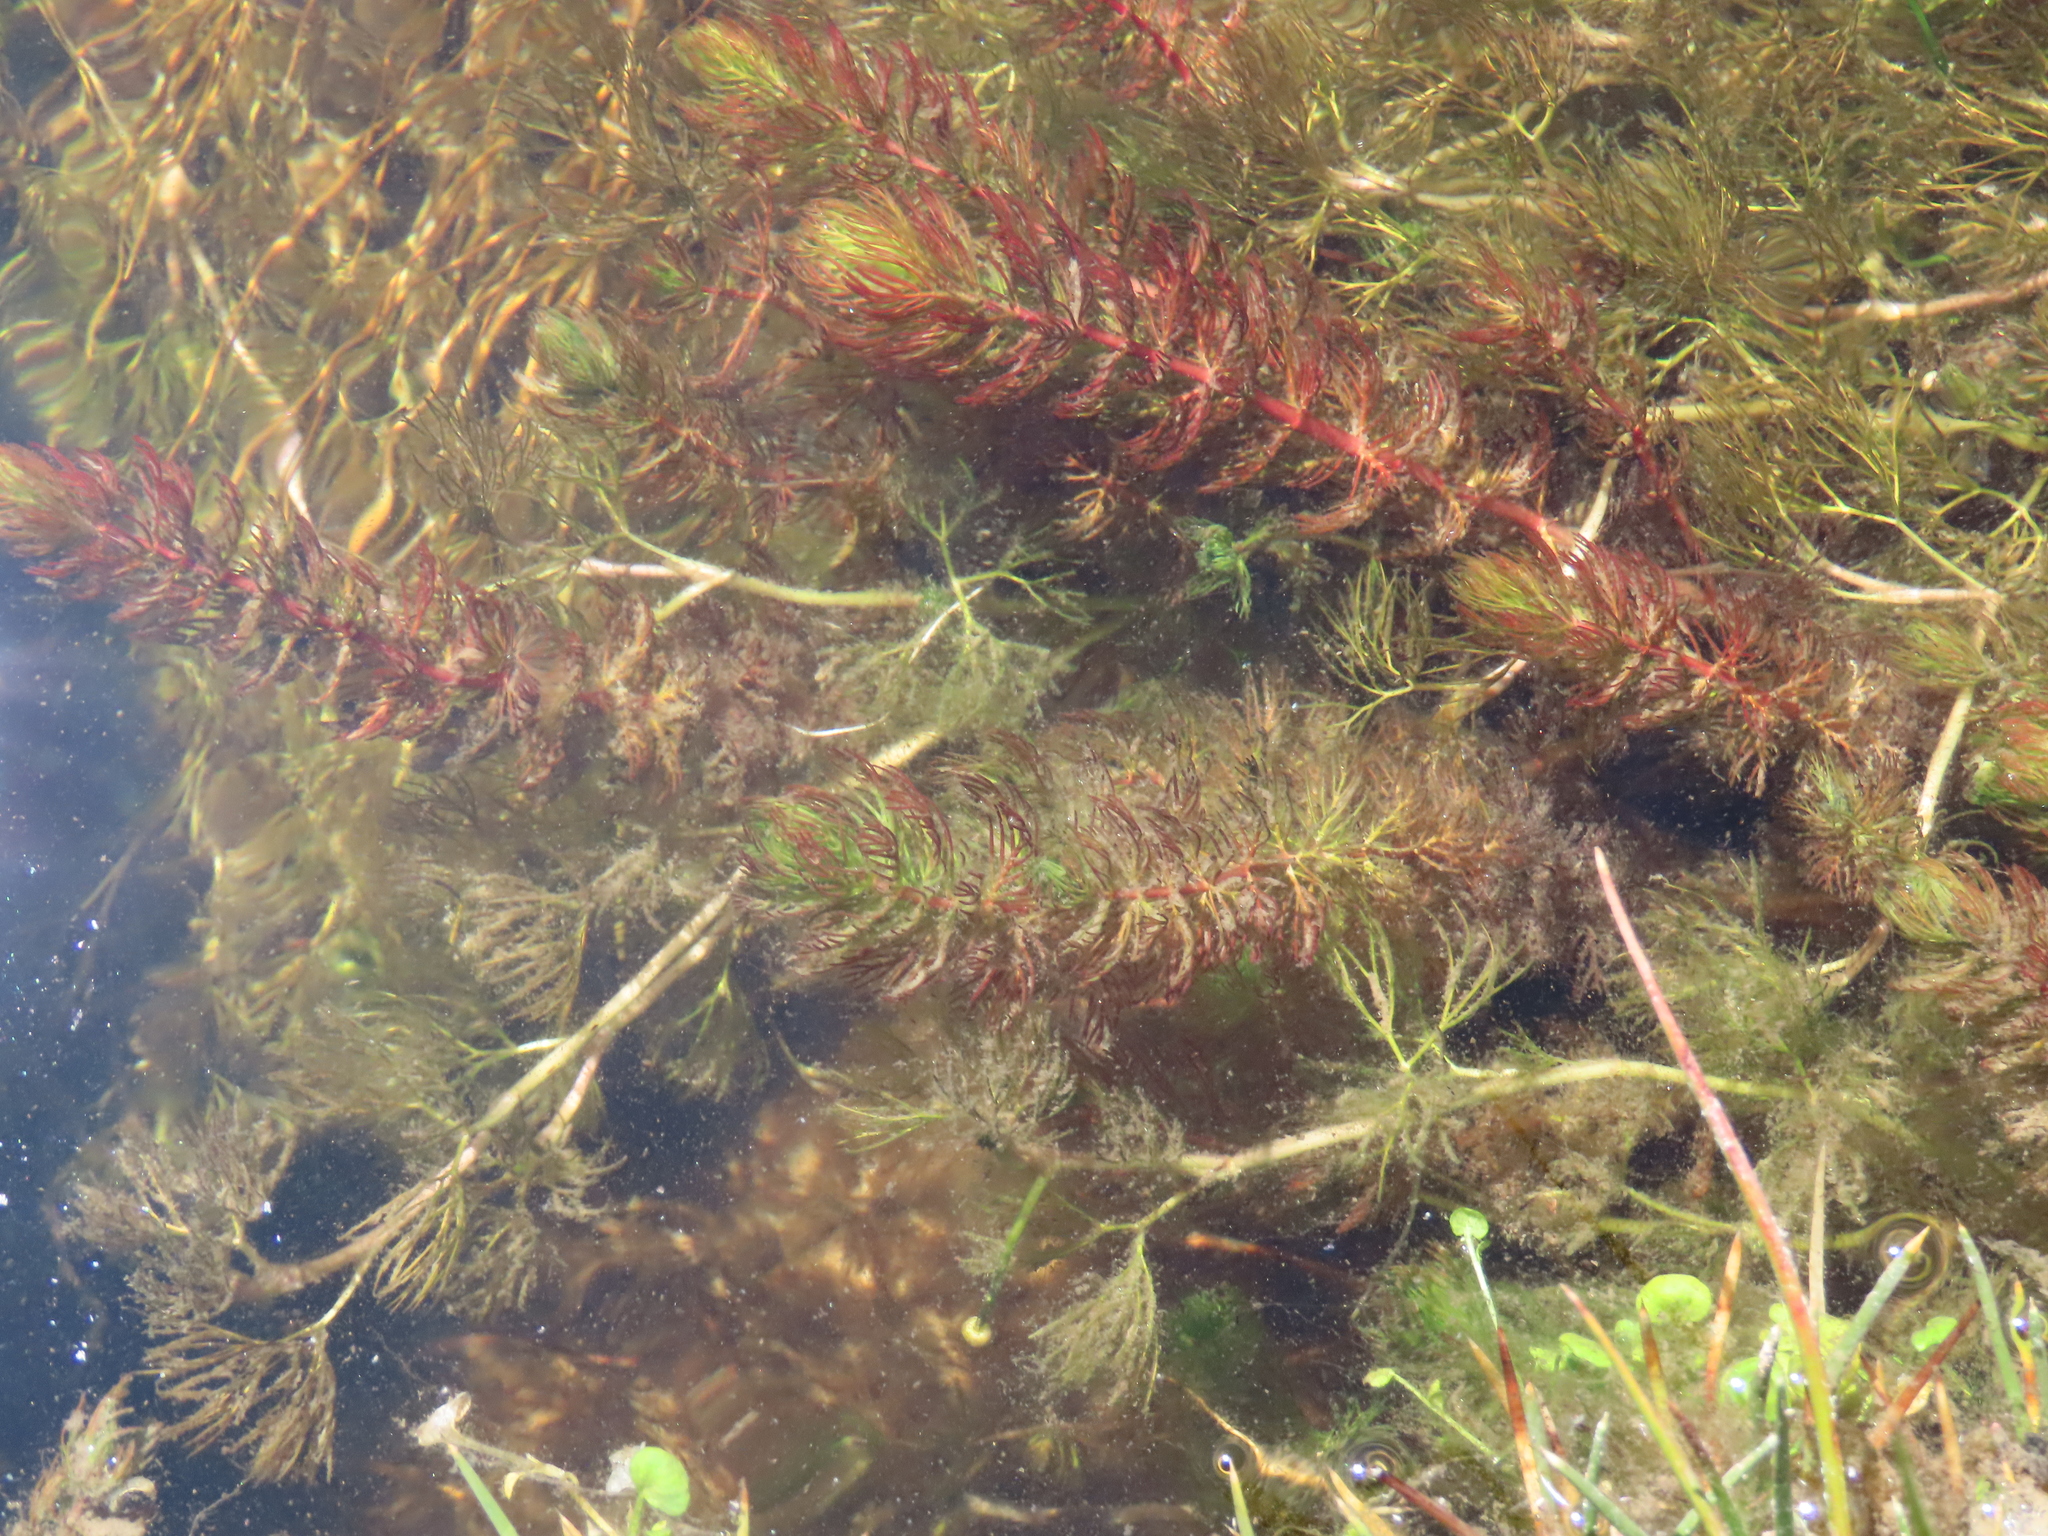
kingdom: Plantae
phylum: Tracheophyta
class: Magnoliopsida
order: Saxifragales
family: Haloragaceae
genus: Myriophyllum
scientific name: Myriophyllum quitense
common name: Andean water milfoil
